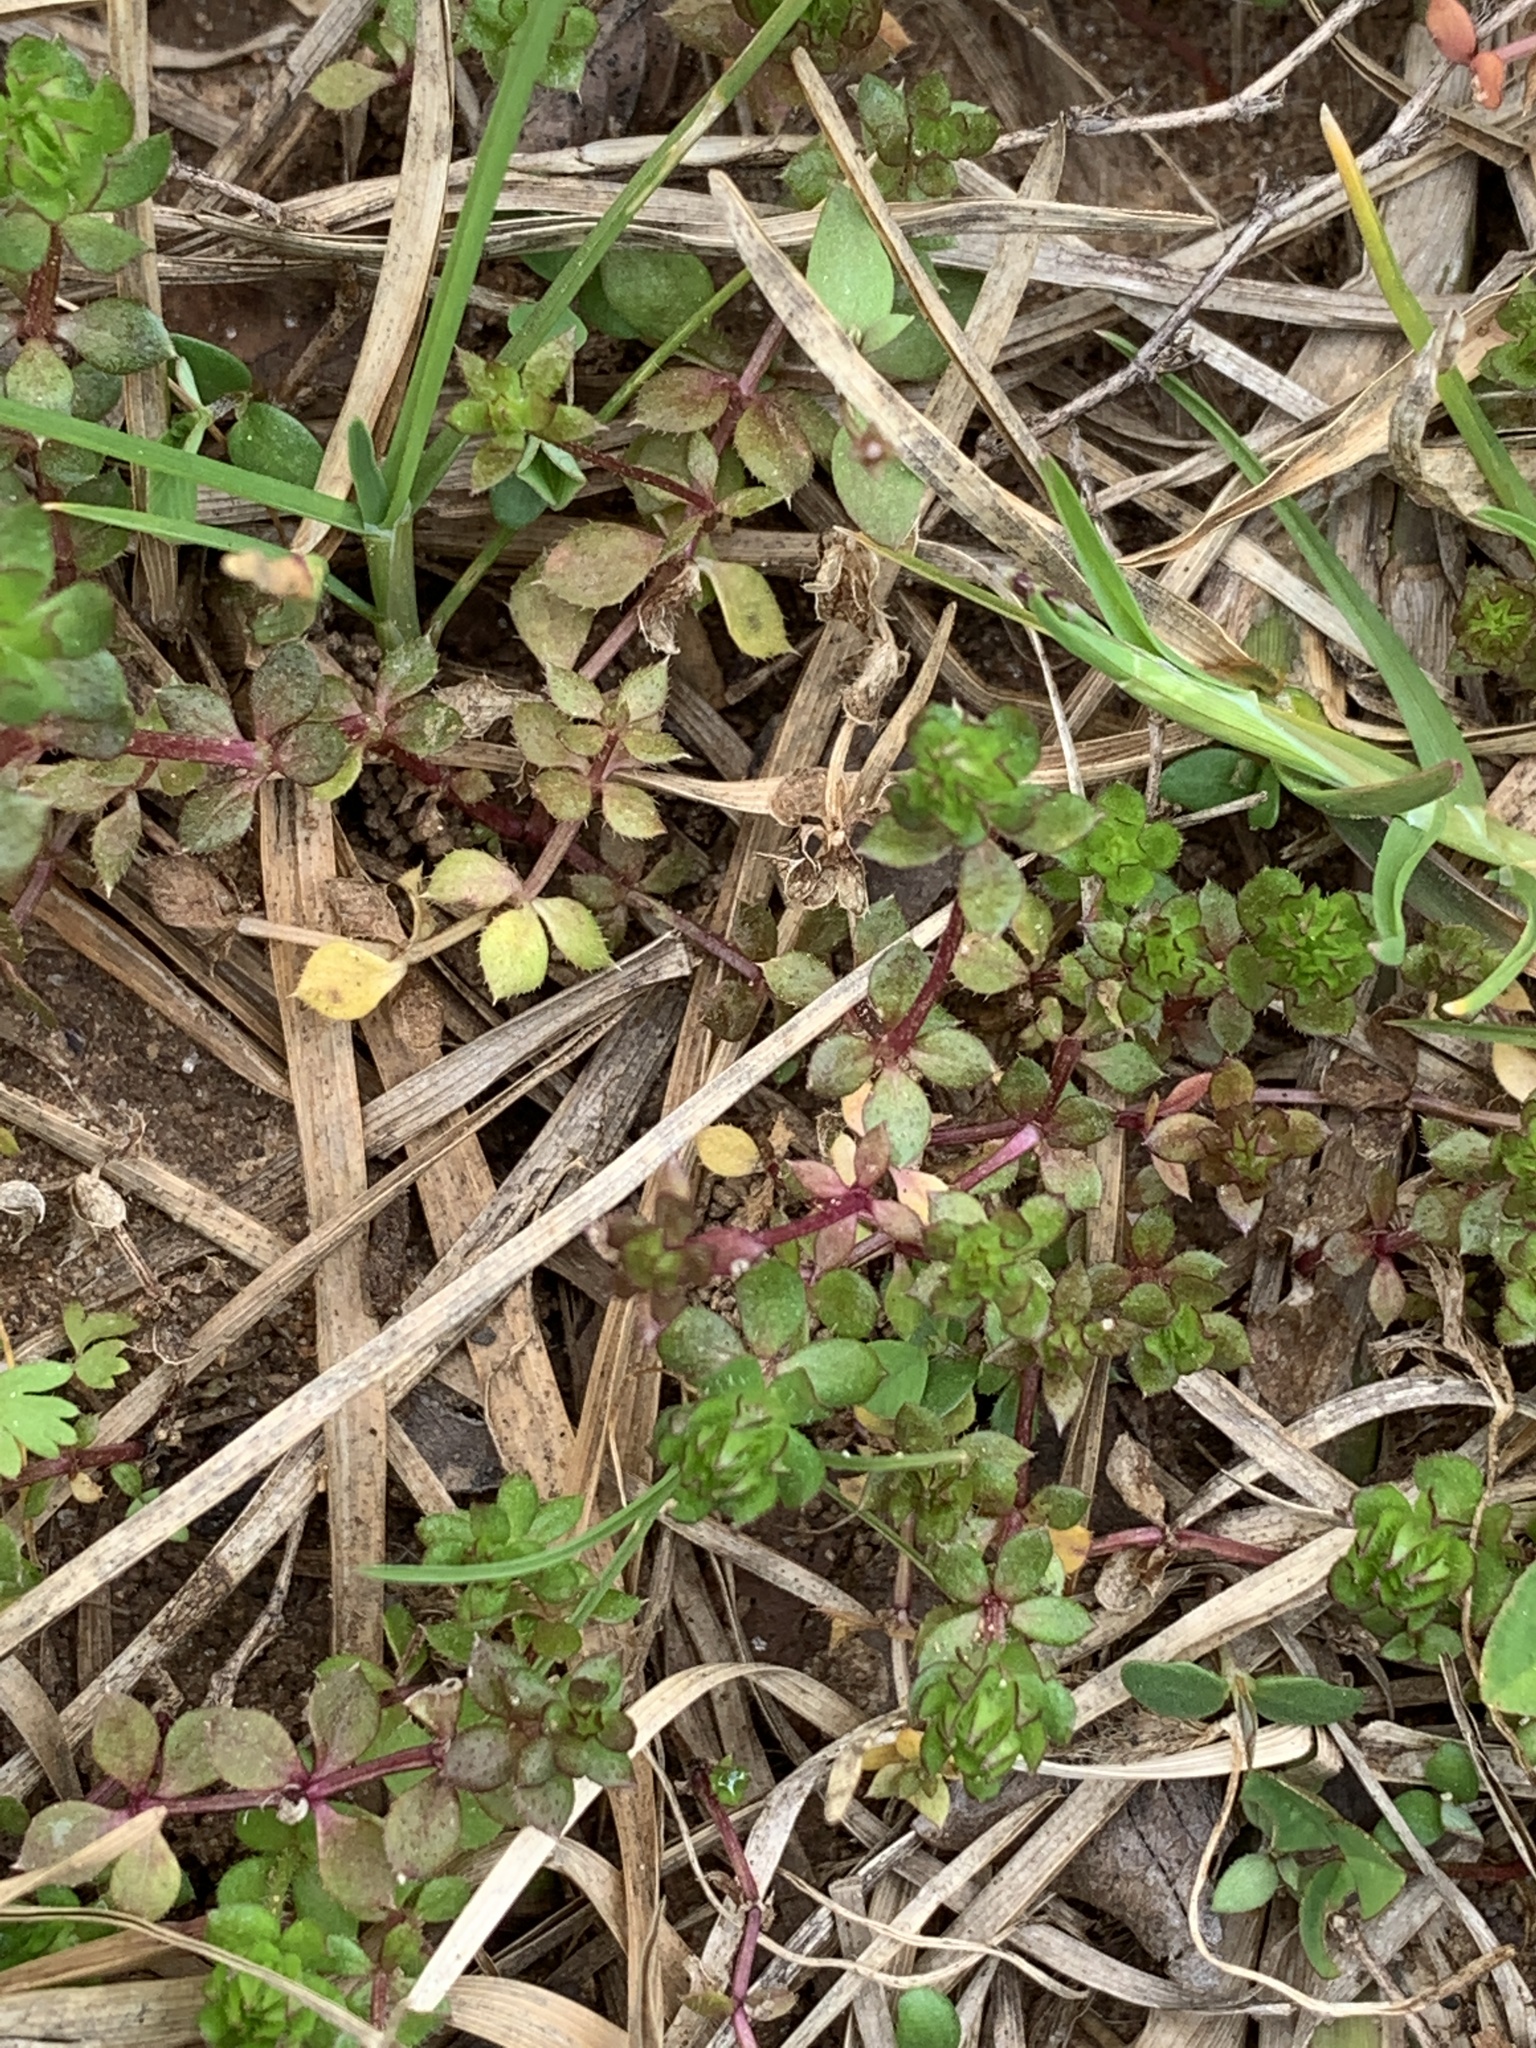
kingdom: Plantae
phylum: Tracheophyta
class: Magnoliopsida
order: Gentianales
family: Rubiaceae
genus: Sherardia
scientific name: Sherardia arvensis
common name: Field madder
